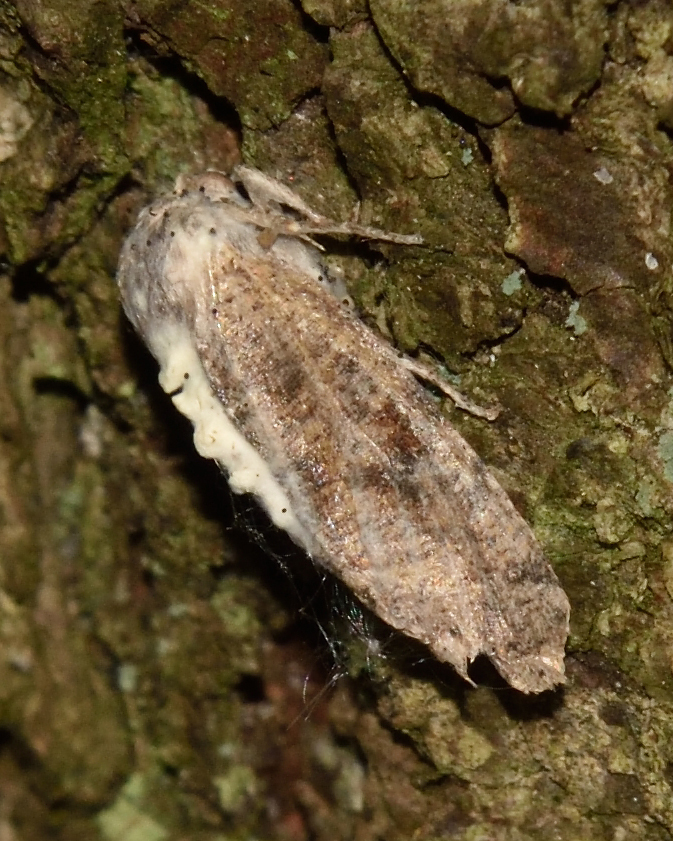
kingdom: Animalia
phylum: Arthropoda
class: Insecta
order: Lepidoptera
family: Noctuidae
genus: Orthosia
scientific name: Orthosia incerta
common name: Clouded drab
